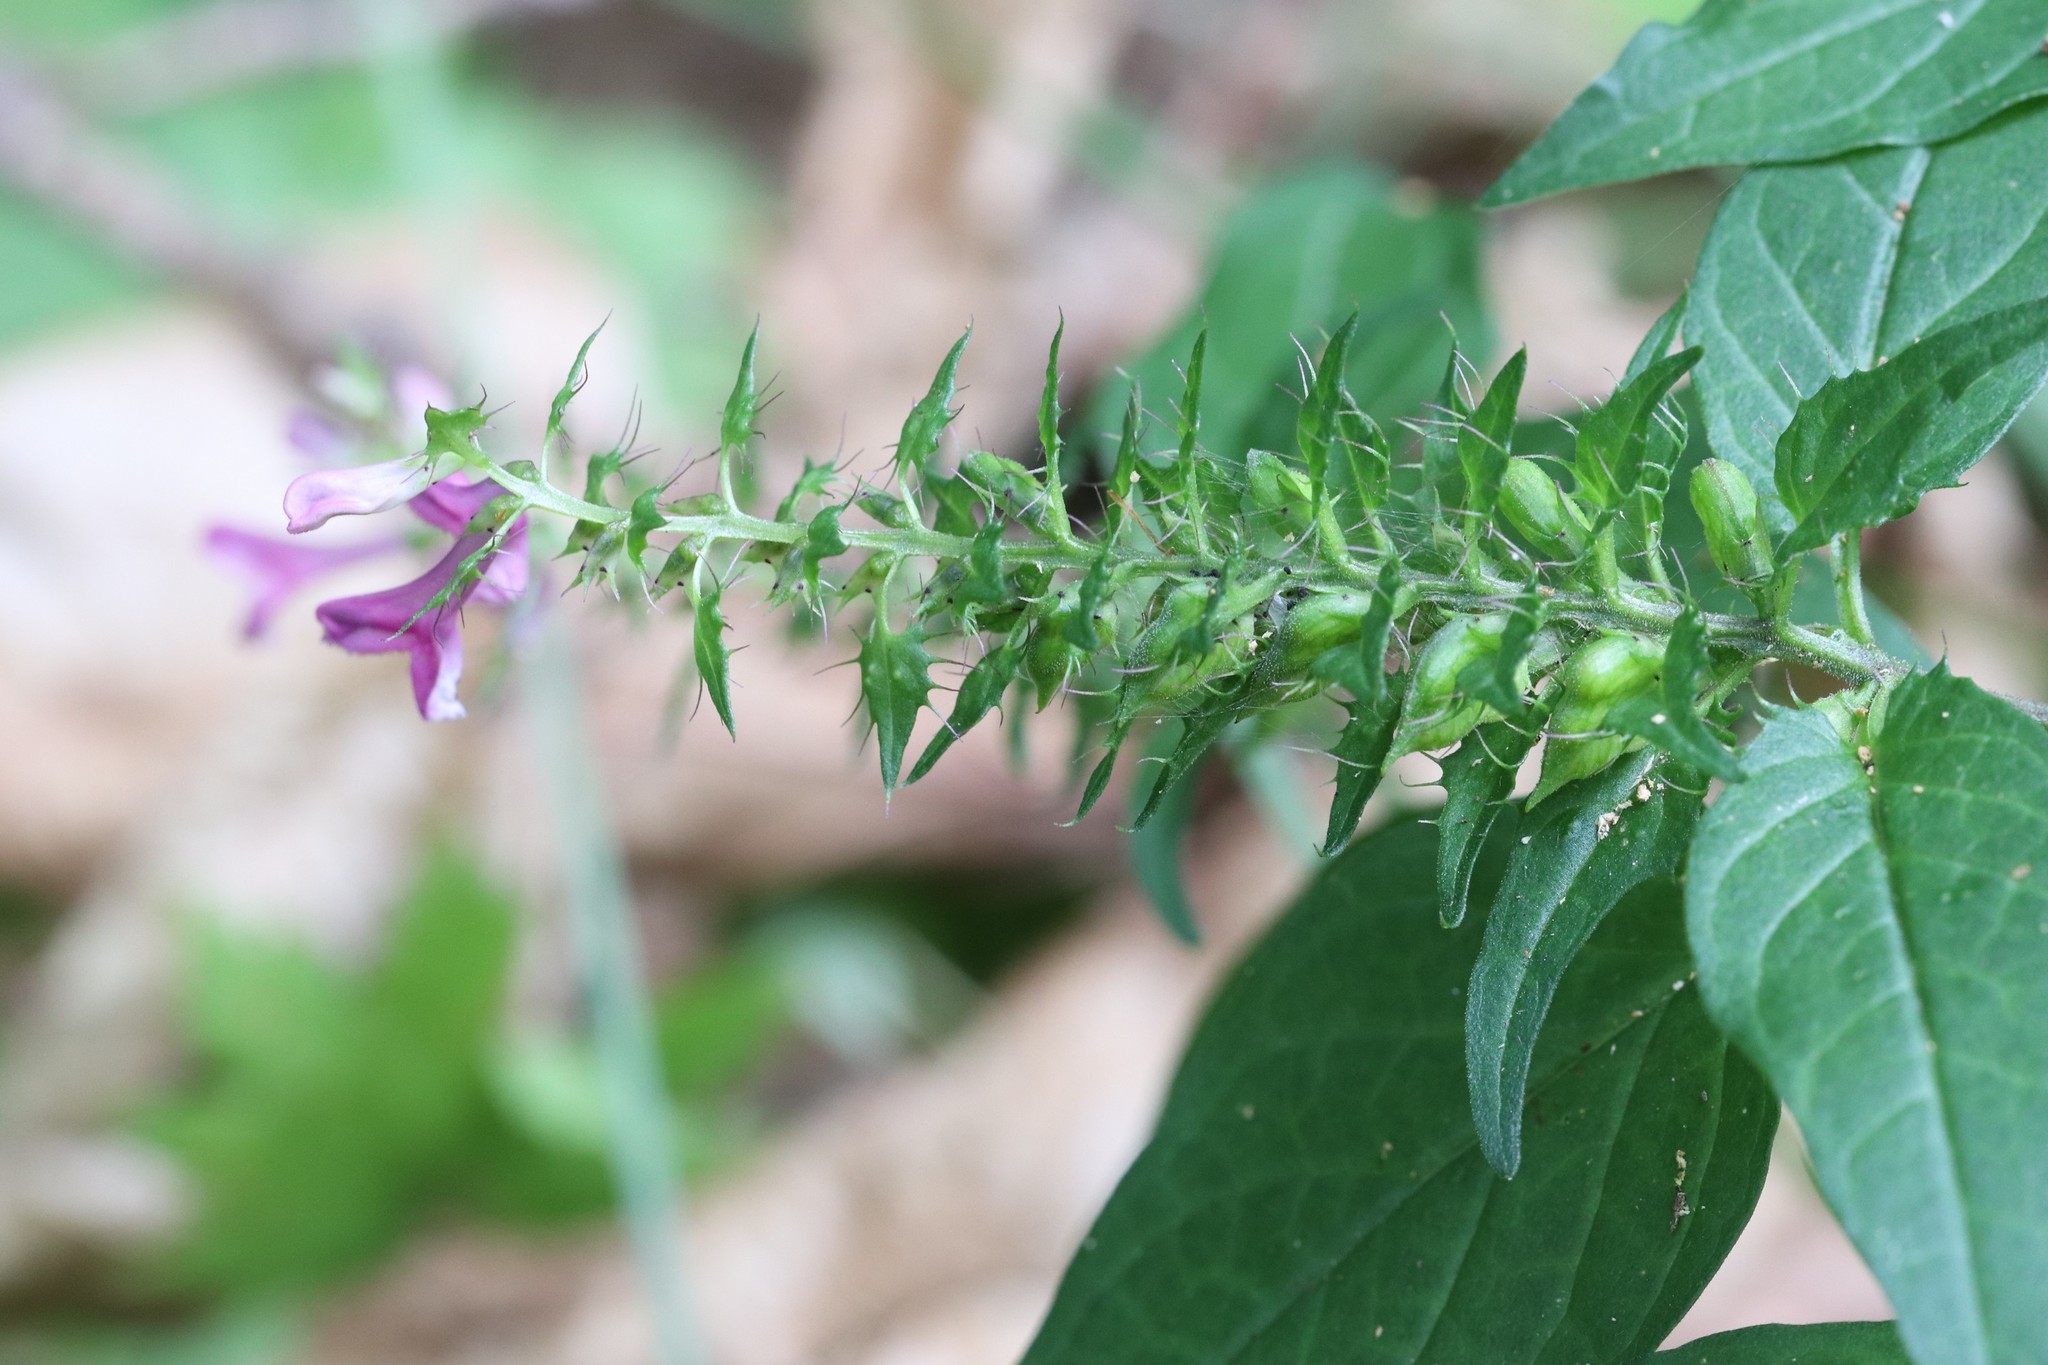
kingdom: Plantae
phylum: Tracheophyta
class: Magnoliopsida
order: Lamiales
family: Orobanchaceae
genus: Melampyrum
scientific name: Melampyrum roseum
